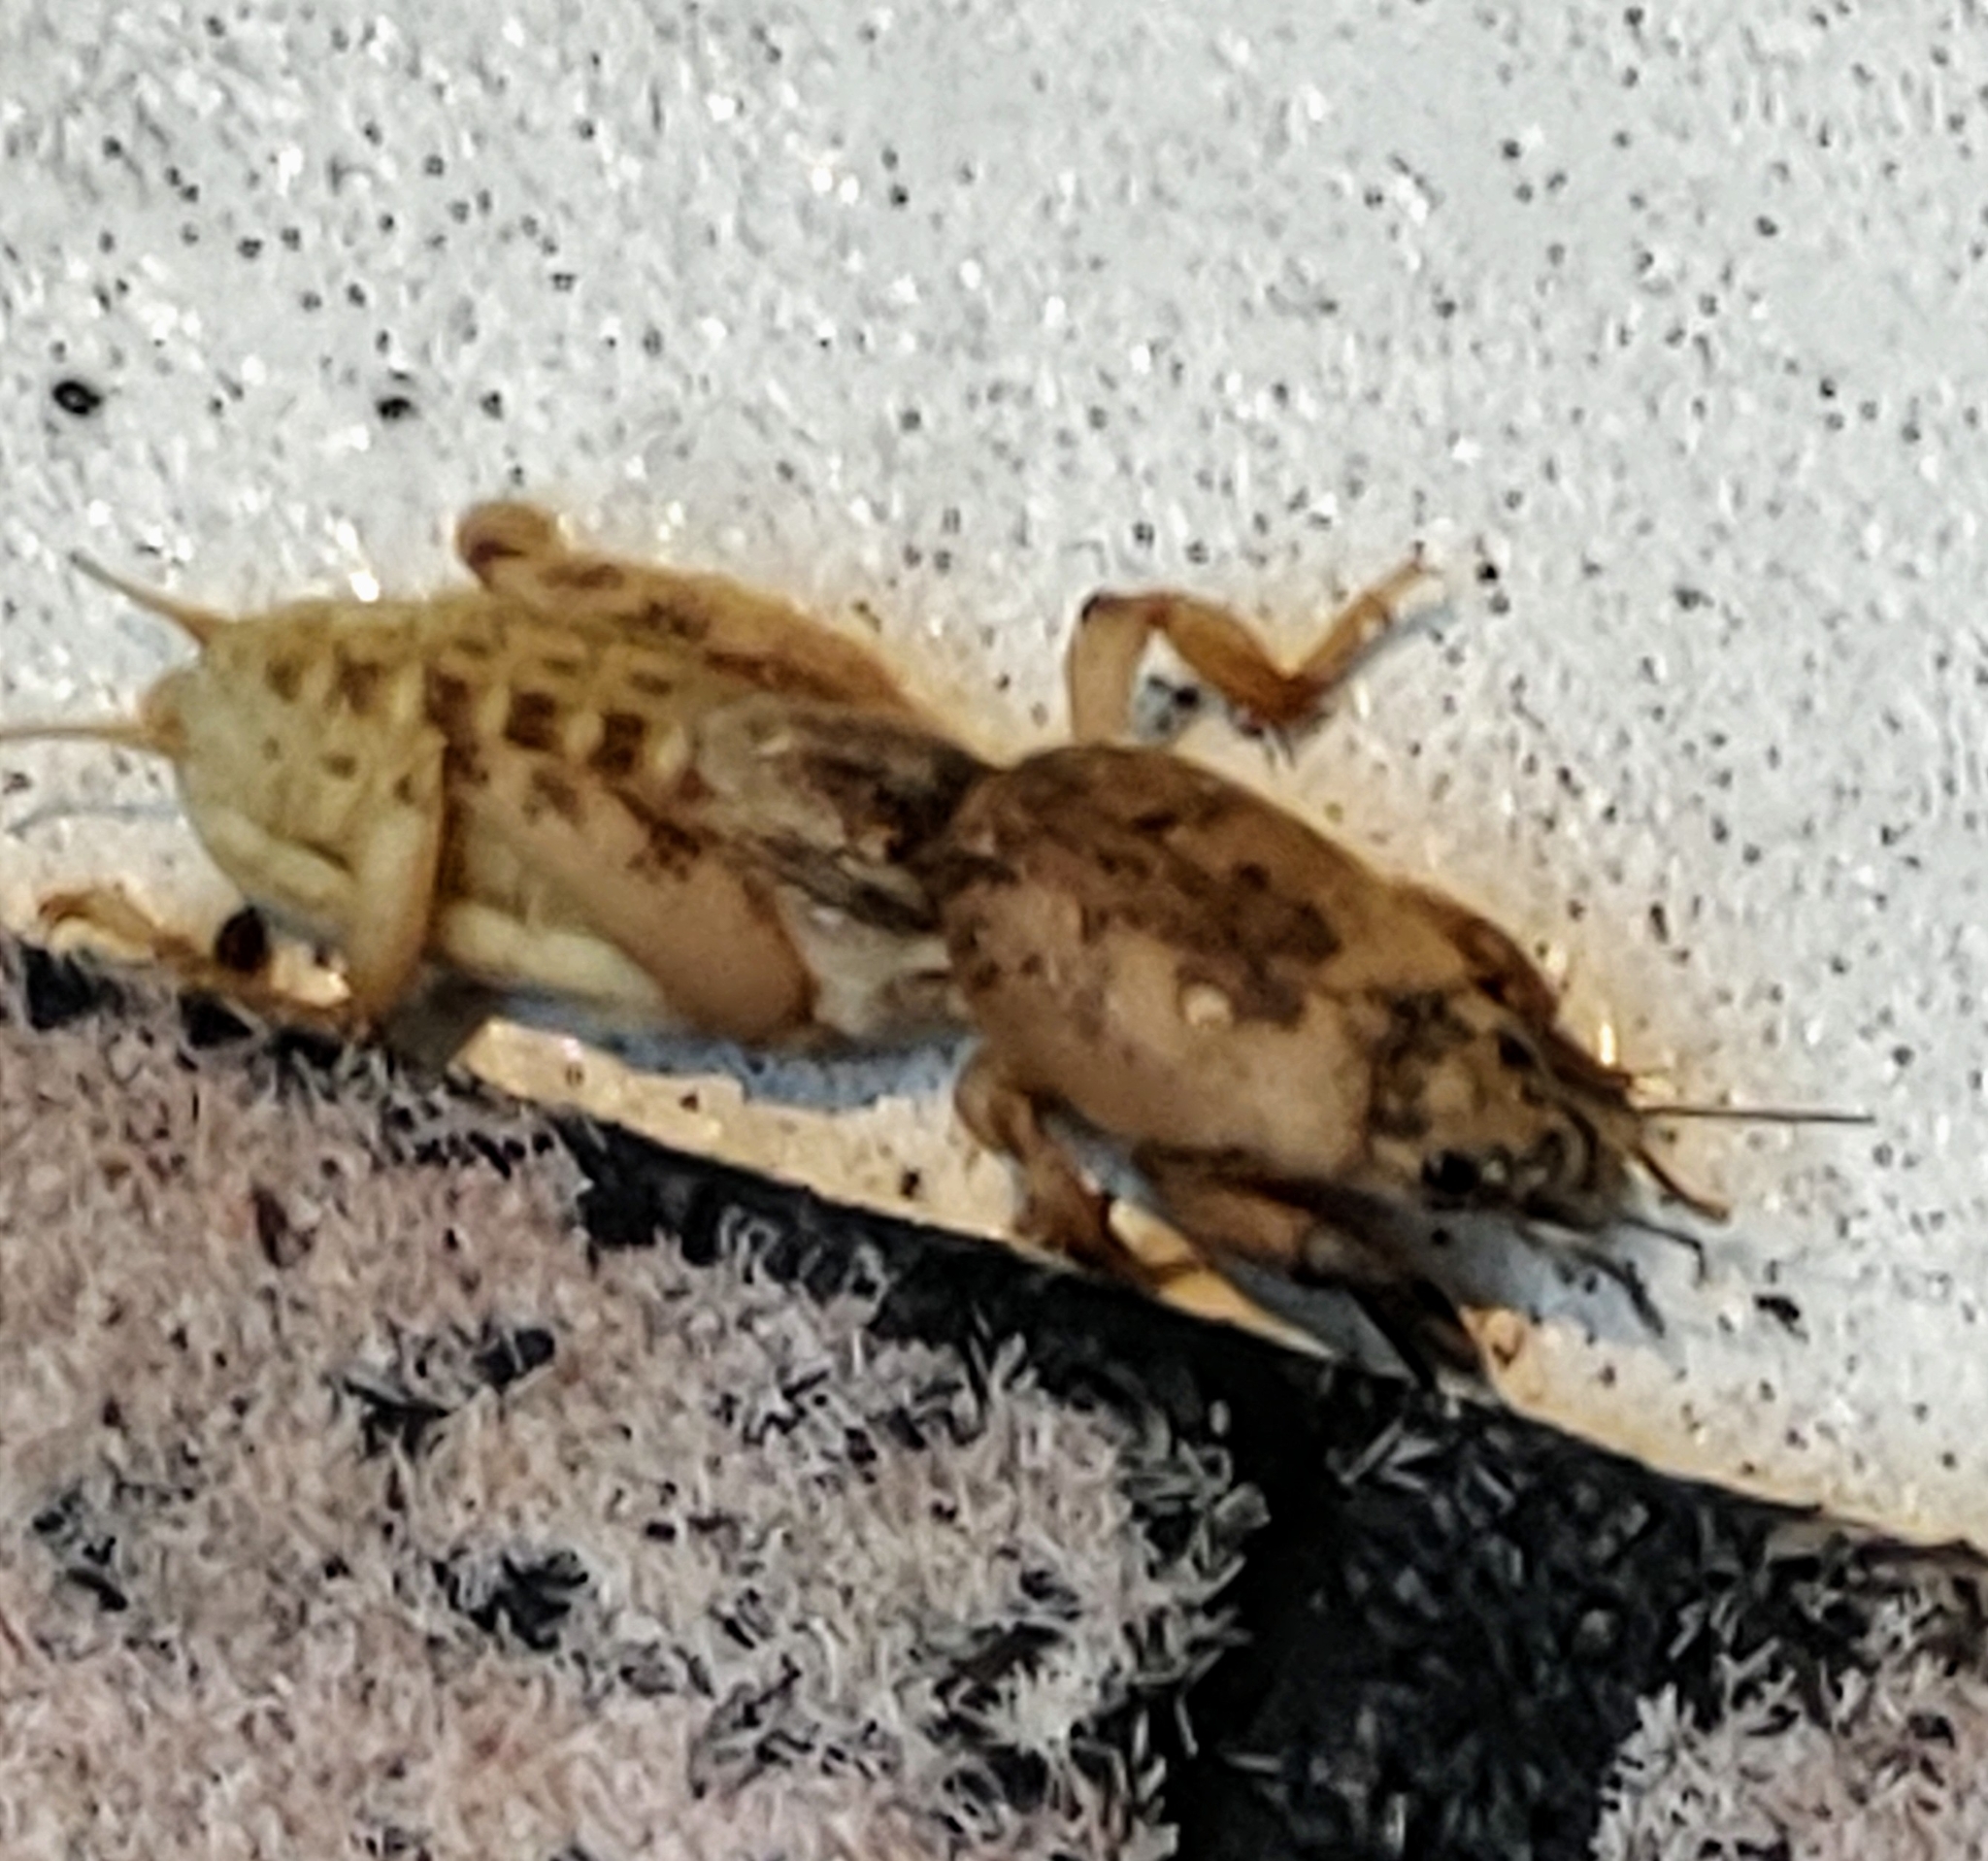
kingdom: Animalia
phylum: Arthropoda
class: Insecta
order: Orthoptera
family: Gryllotalpidae
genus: Neoscapteriscus
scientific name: Neoscapteriscus abbreviatus
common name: Short-winged mole cricket
